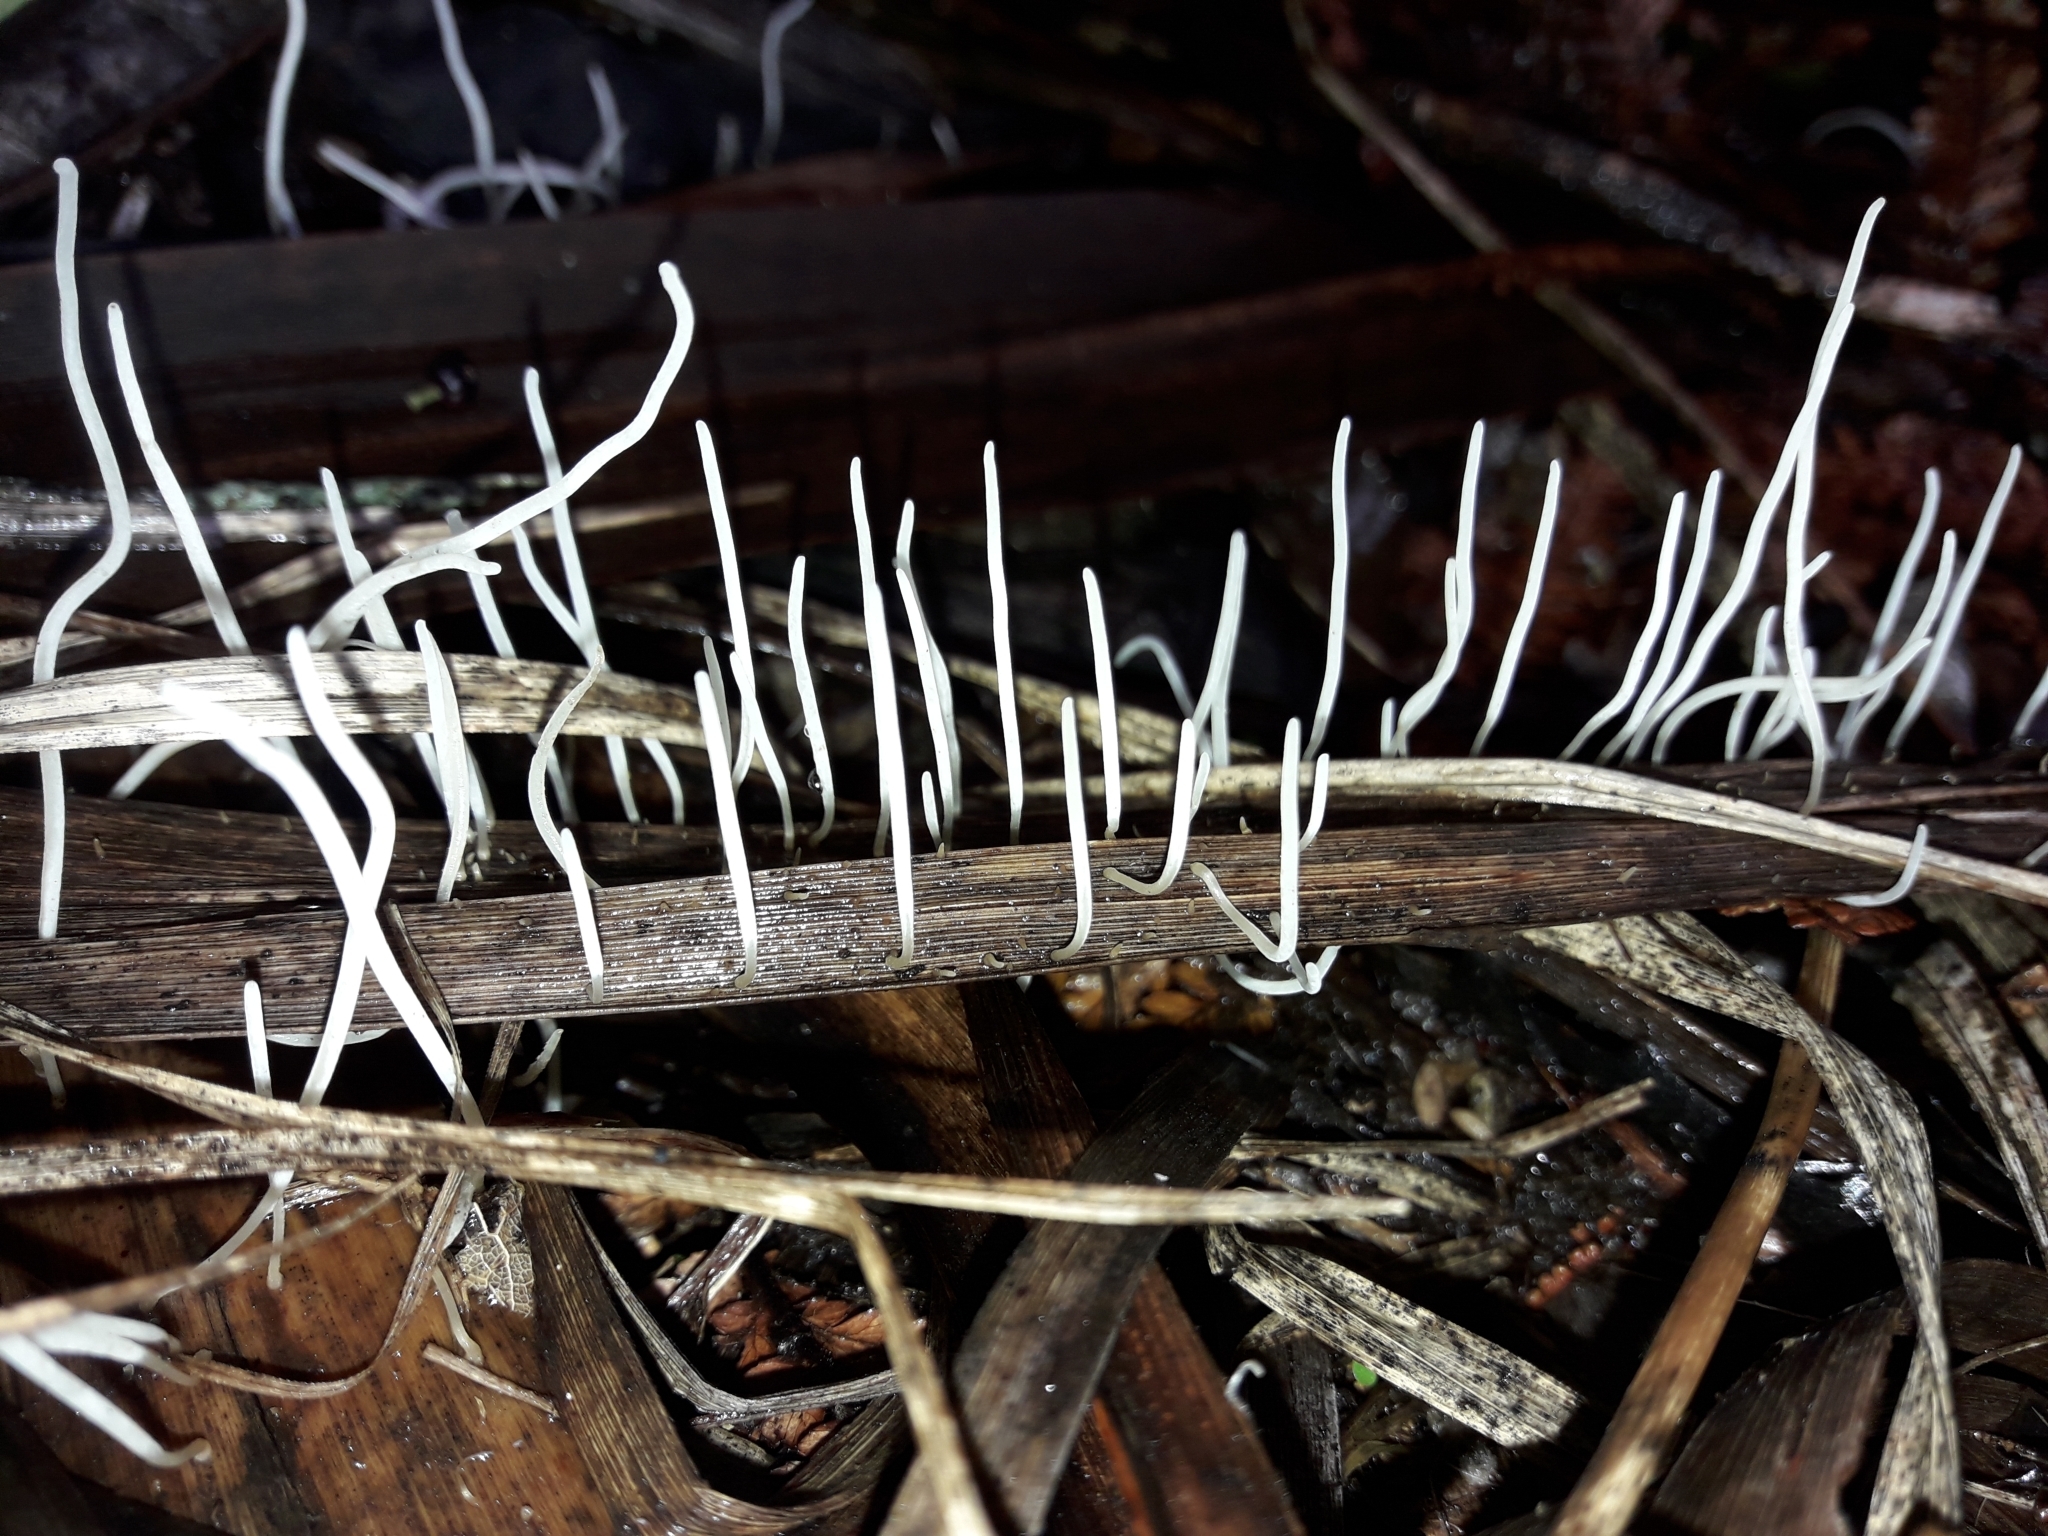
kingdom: Fungi
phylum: Basidiomycota
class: Agaricomycetes
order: Agaricales
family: Typhulaceae
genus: Macrotyphula
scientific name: Macrotyphula defibulata
